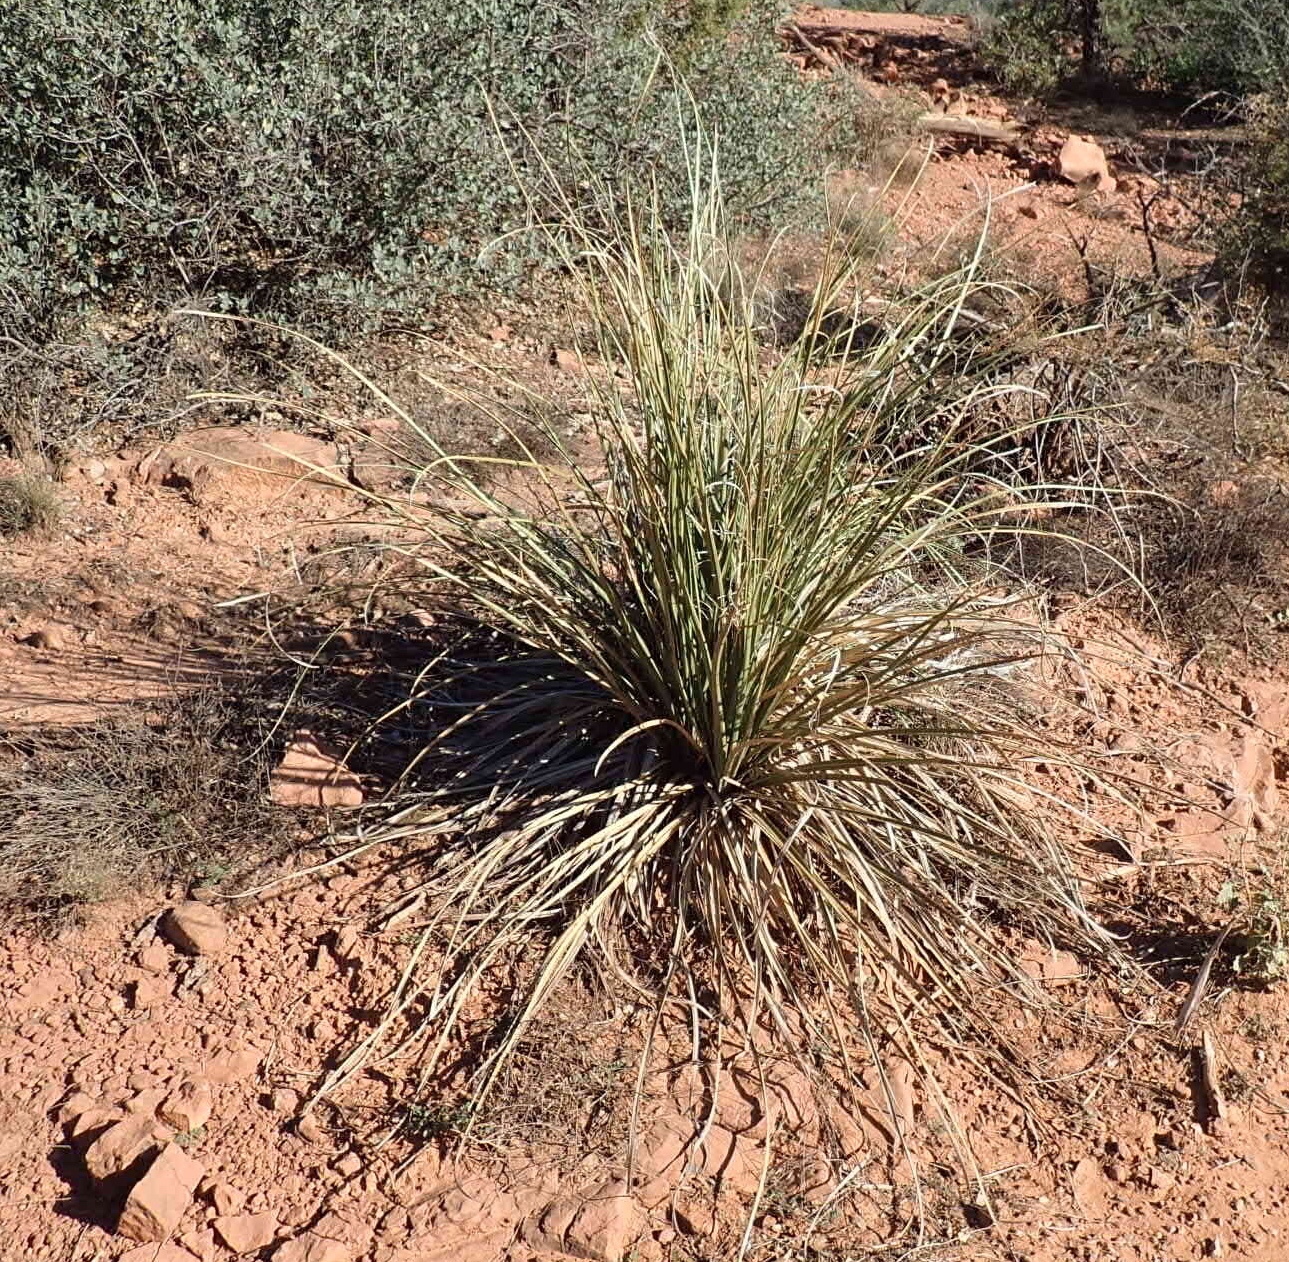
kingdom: Plantae
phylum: Tracheophyta
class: Liliopsida
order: Asparagales
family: Asparagaceae
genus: Nolina
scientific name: Nolina microcarpa
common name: Bear-grass
